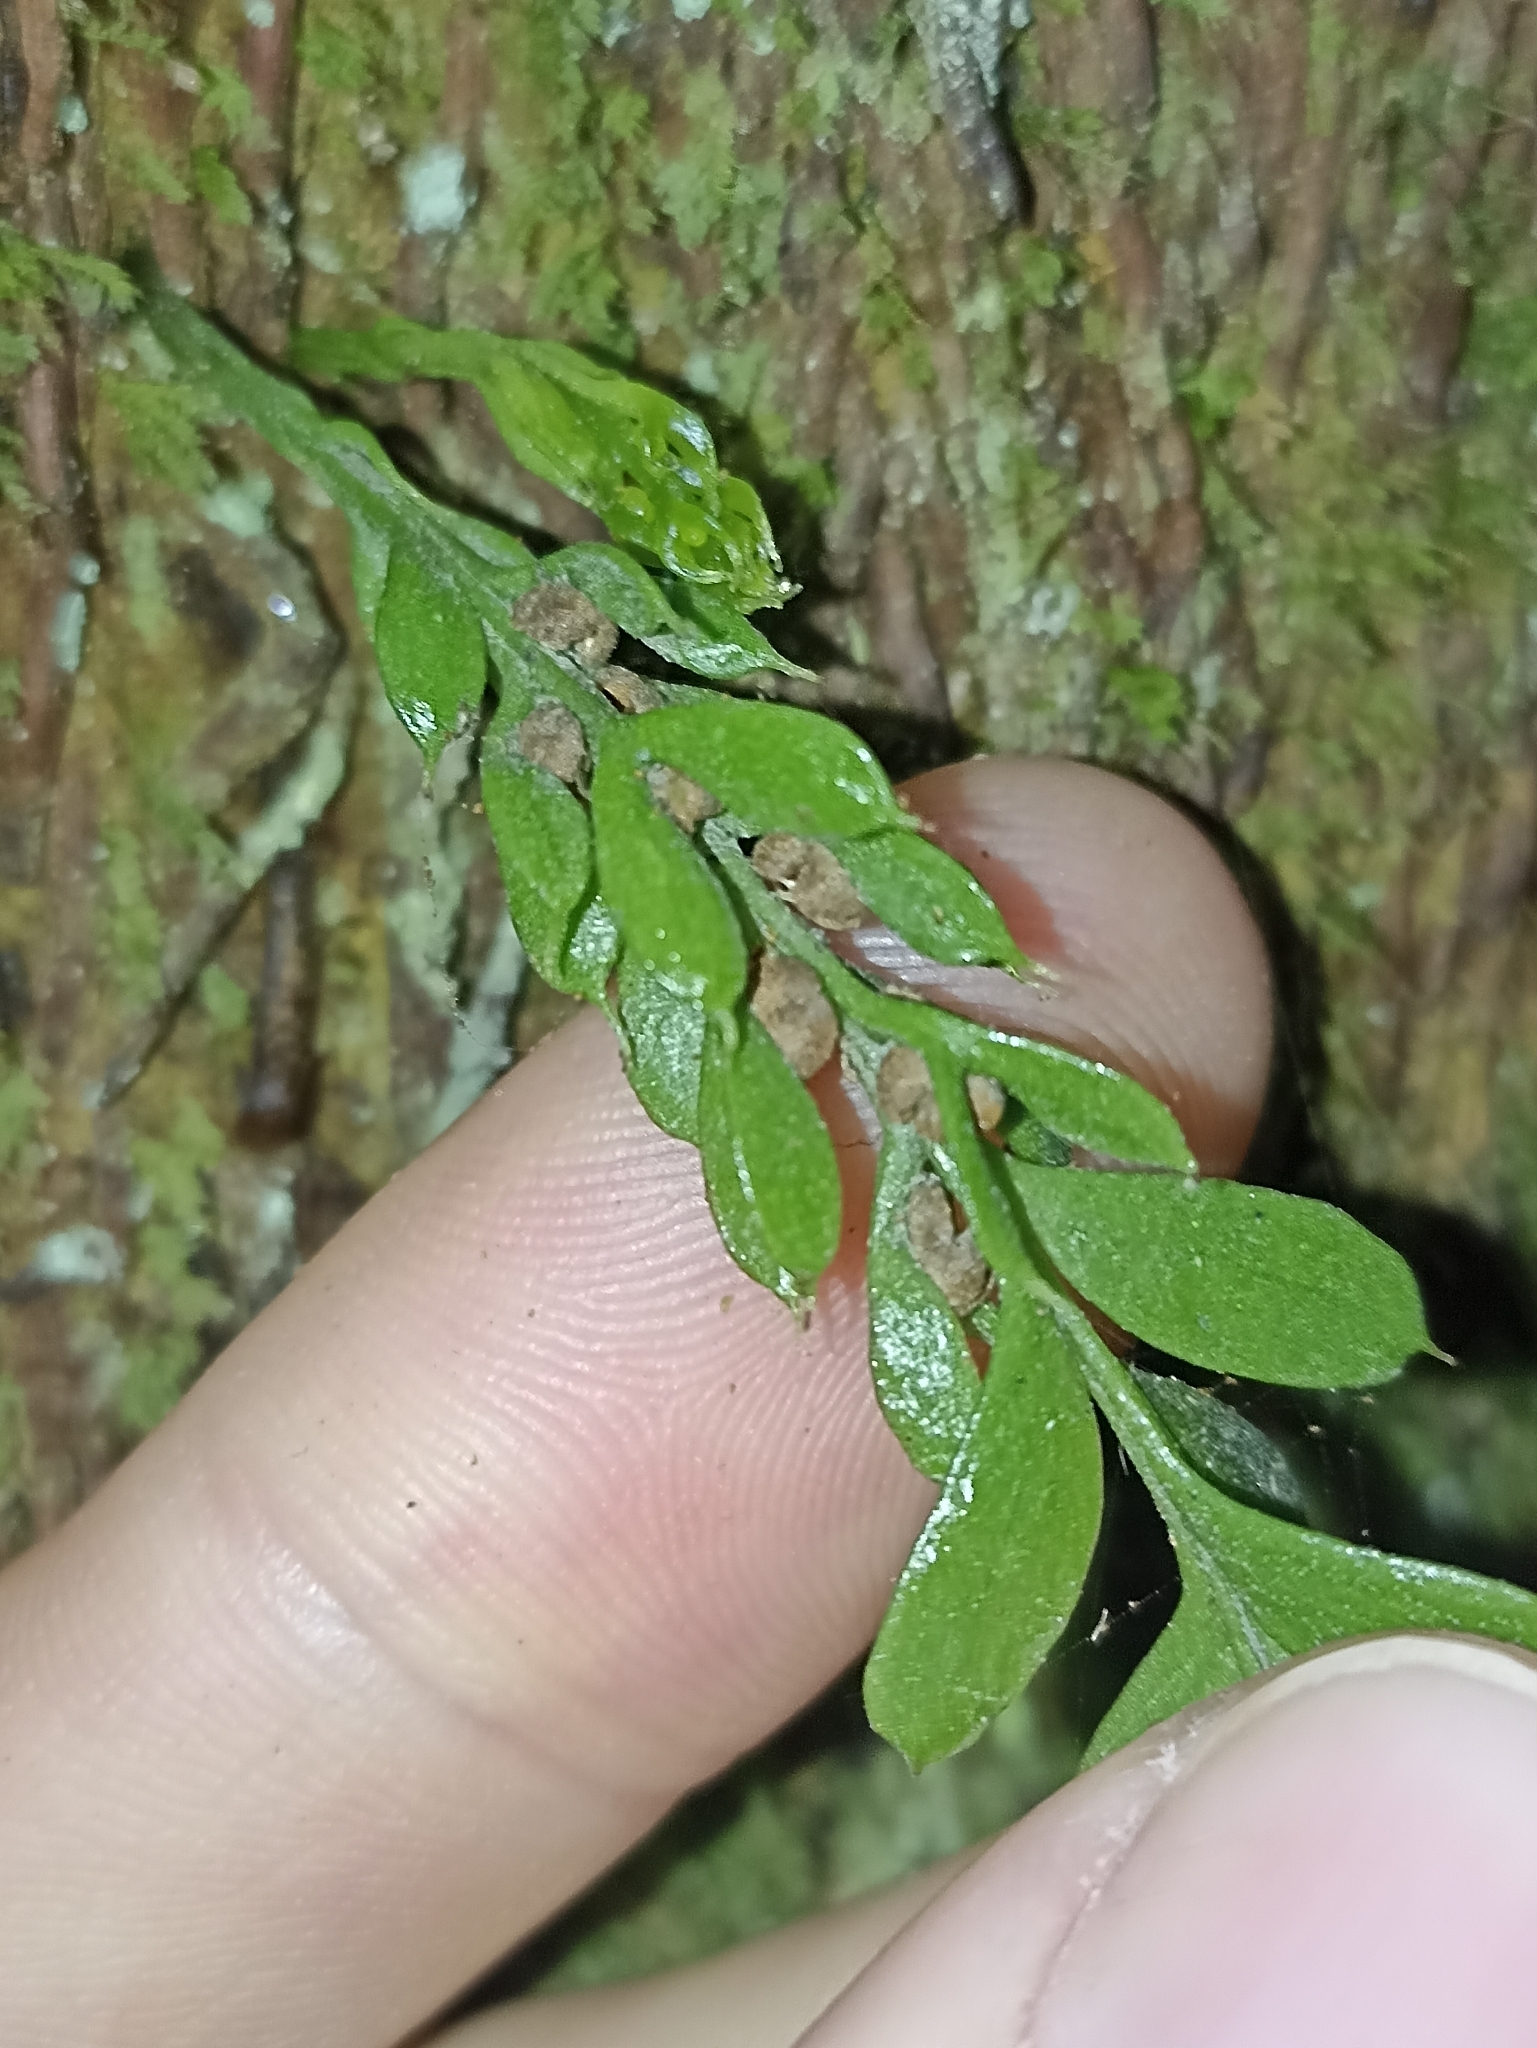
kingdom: Plantae
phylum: Tracheophyta
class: Polypodiopsida
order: Psilotales
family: Psilotaceae
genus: Tmesipteris
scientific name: Tmesipteris lanceolata
